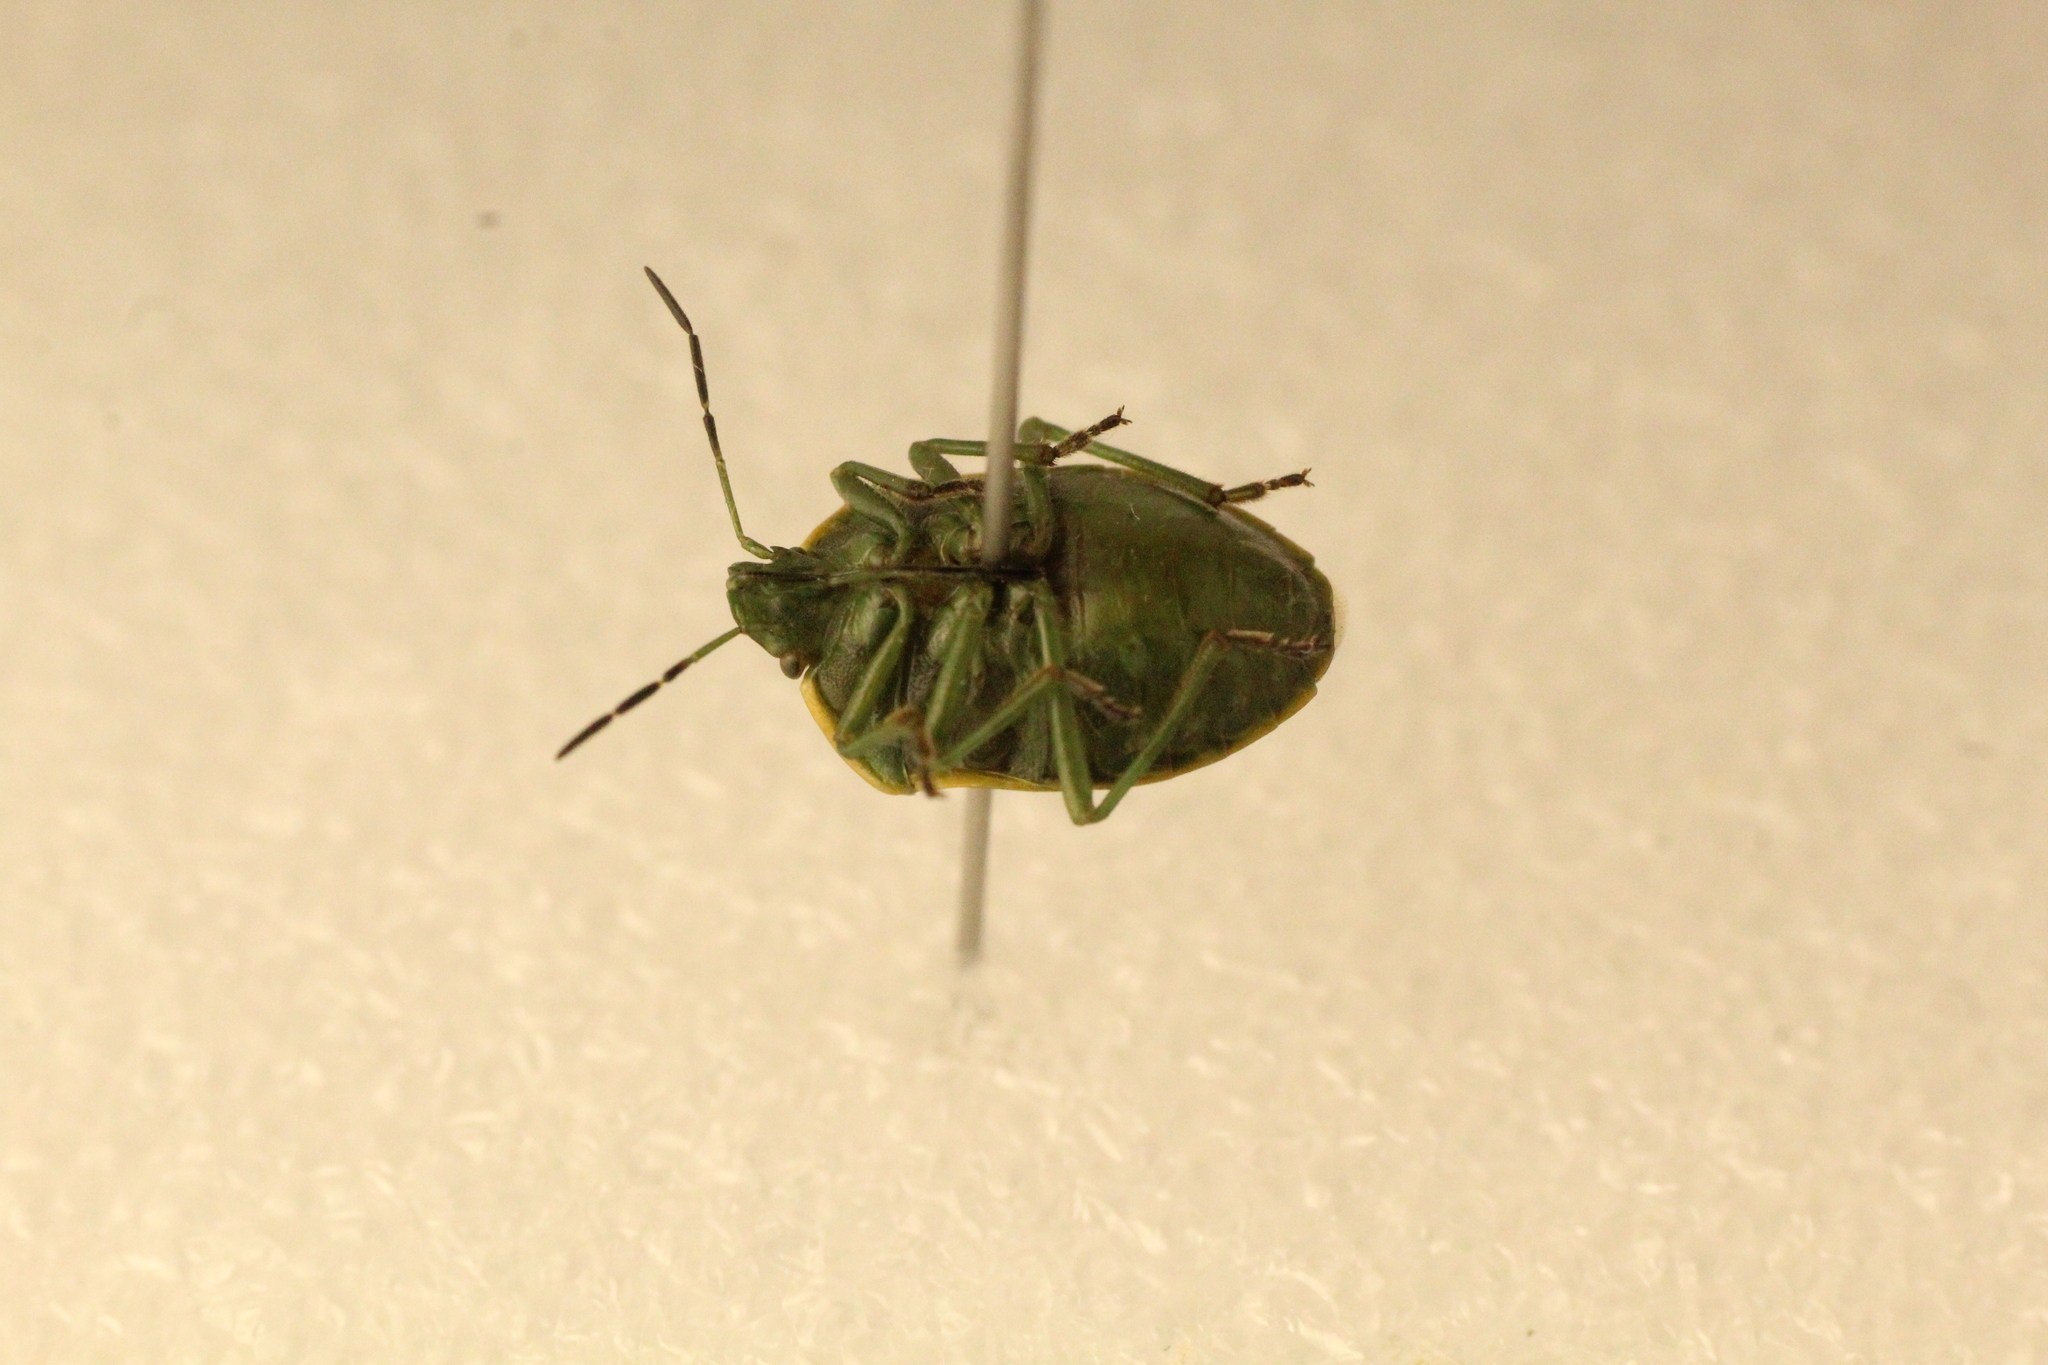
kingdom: Animalia
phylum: Arthropoda
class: Insecta
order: Hemiptera
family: Pentatomidae
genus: Chlorochroa
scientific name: Chlorochroa juniperina
